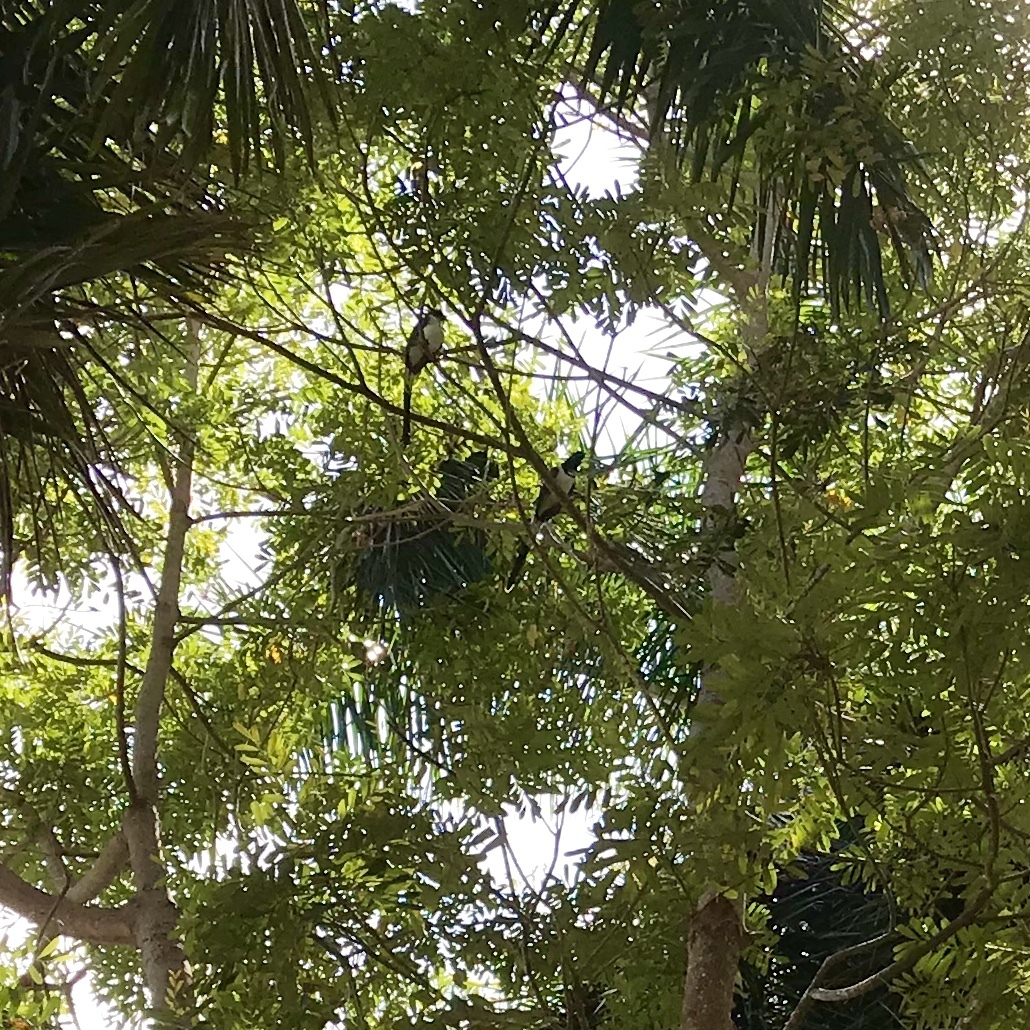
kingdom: Animalia
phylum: Chordata
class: Aves
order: Passeriformes
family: Corvidae
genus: Calocitta
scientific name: Calocitta colliei
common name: Black-throated magpie-jay
